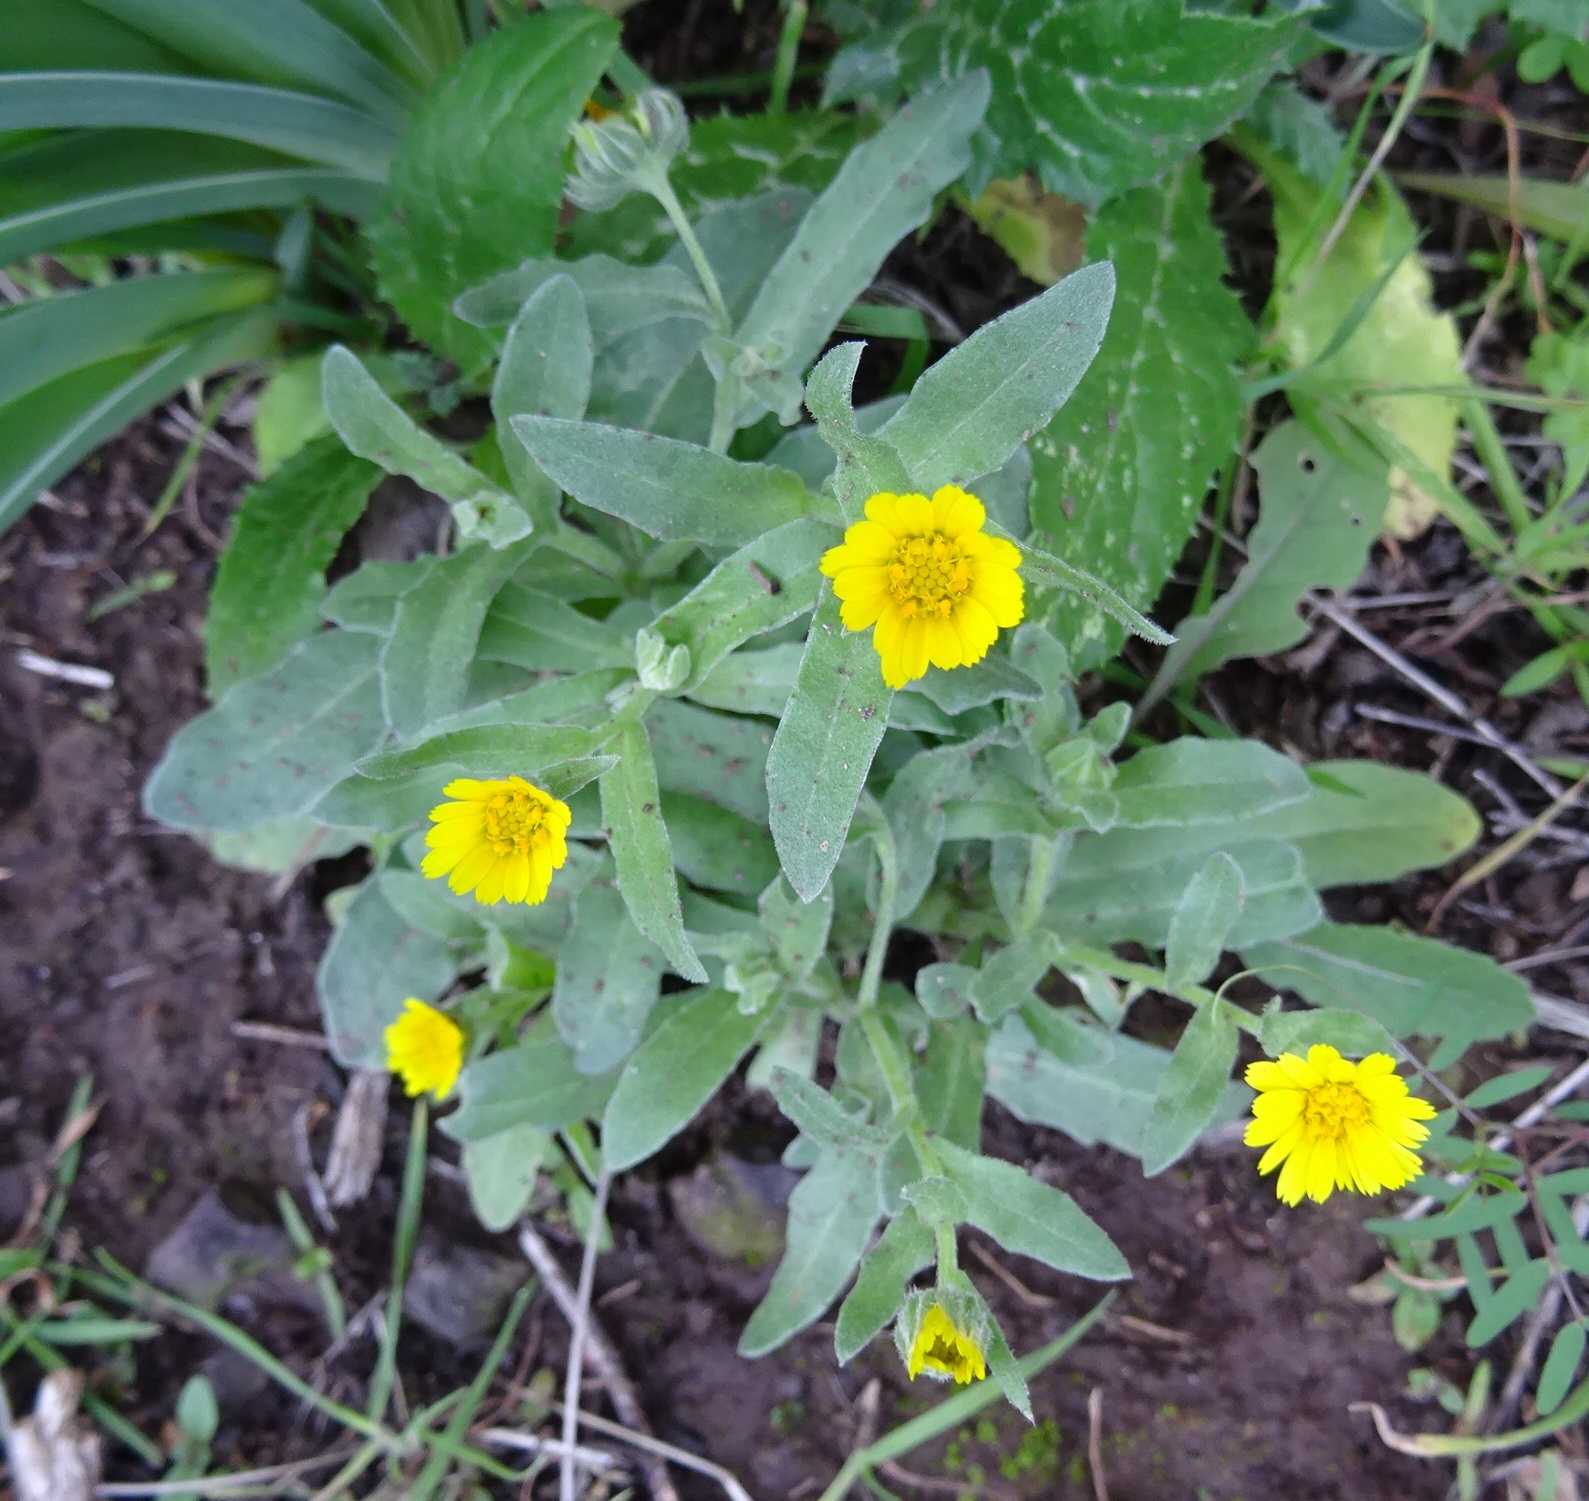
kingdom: Plantae
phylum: Tracheophyta
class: Magnoliopsida
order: Asterales
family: Asteraceae
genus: Calendula
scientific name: Calendula arvensis
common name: Field marigold
